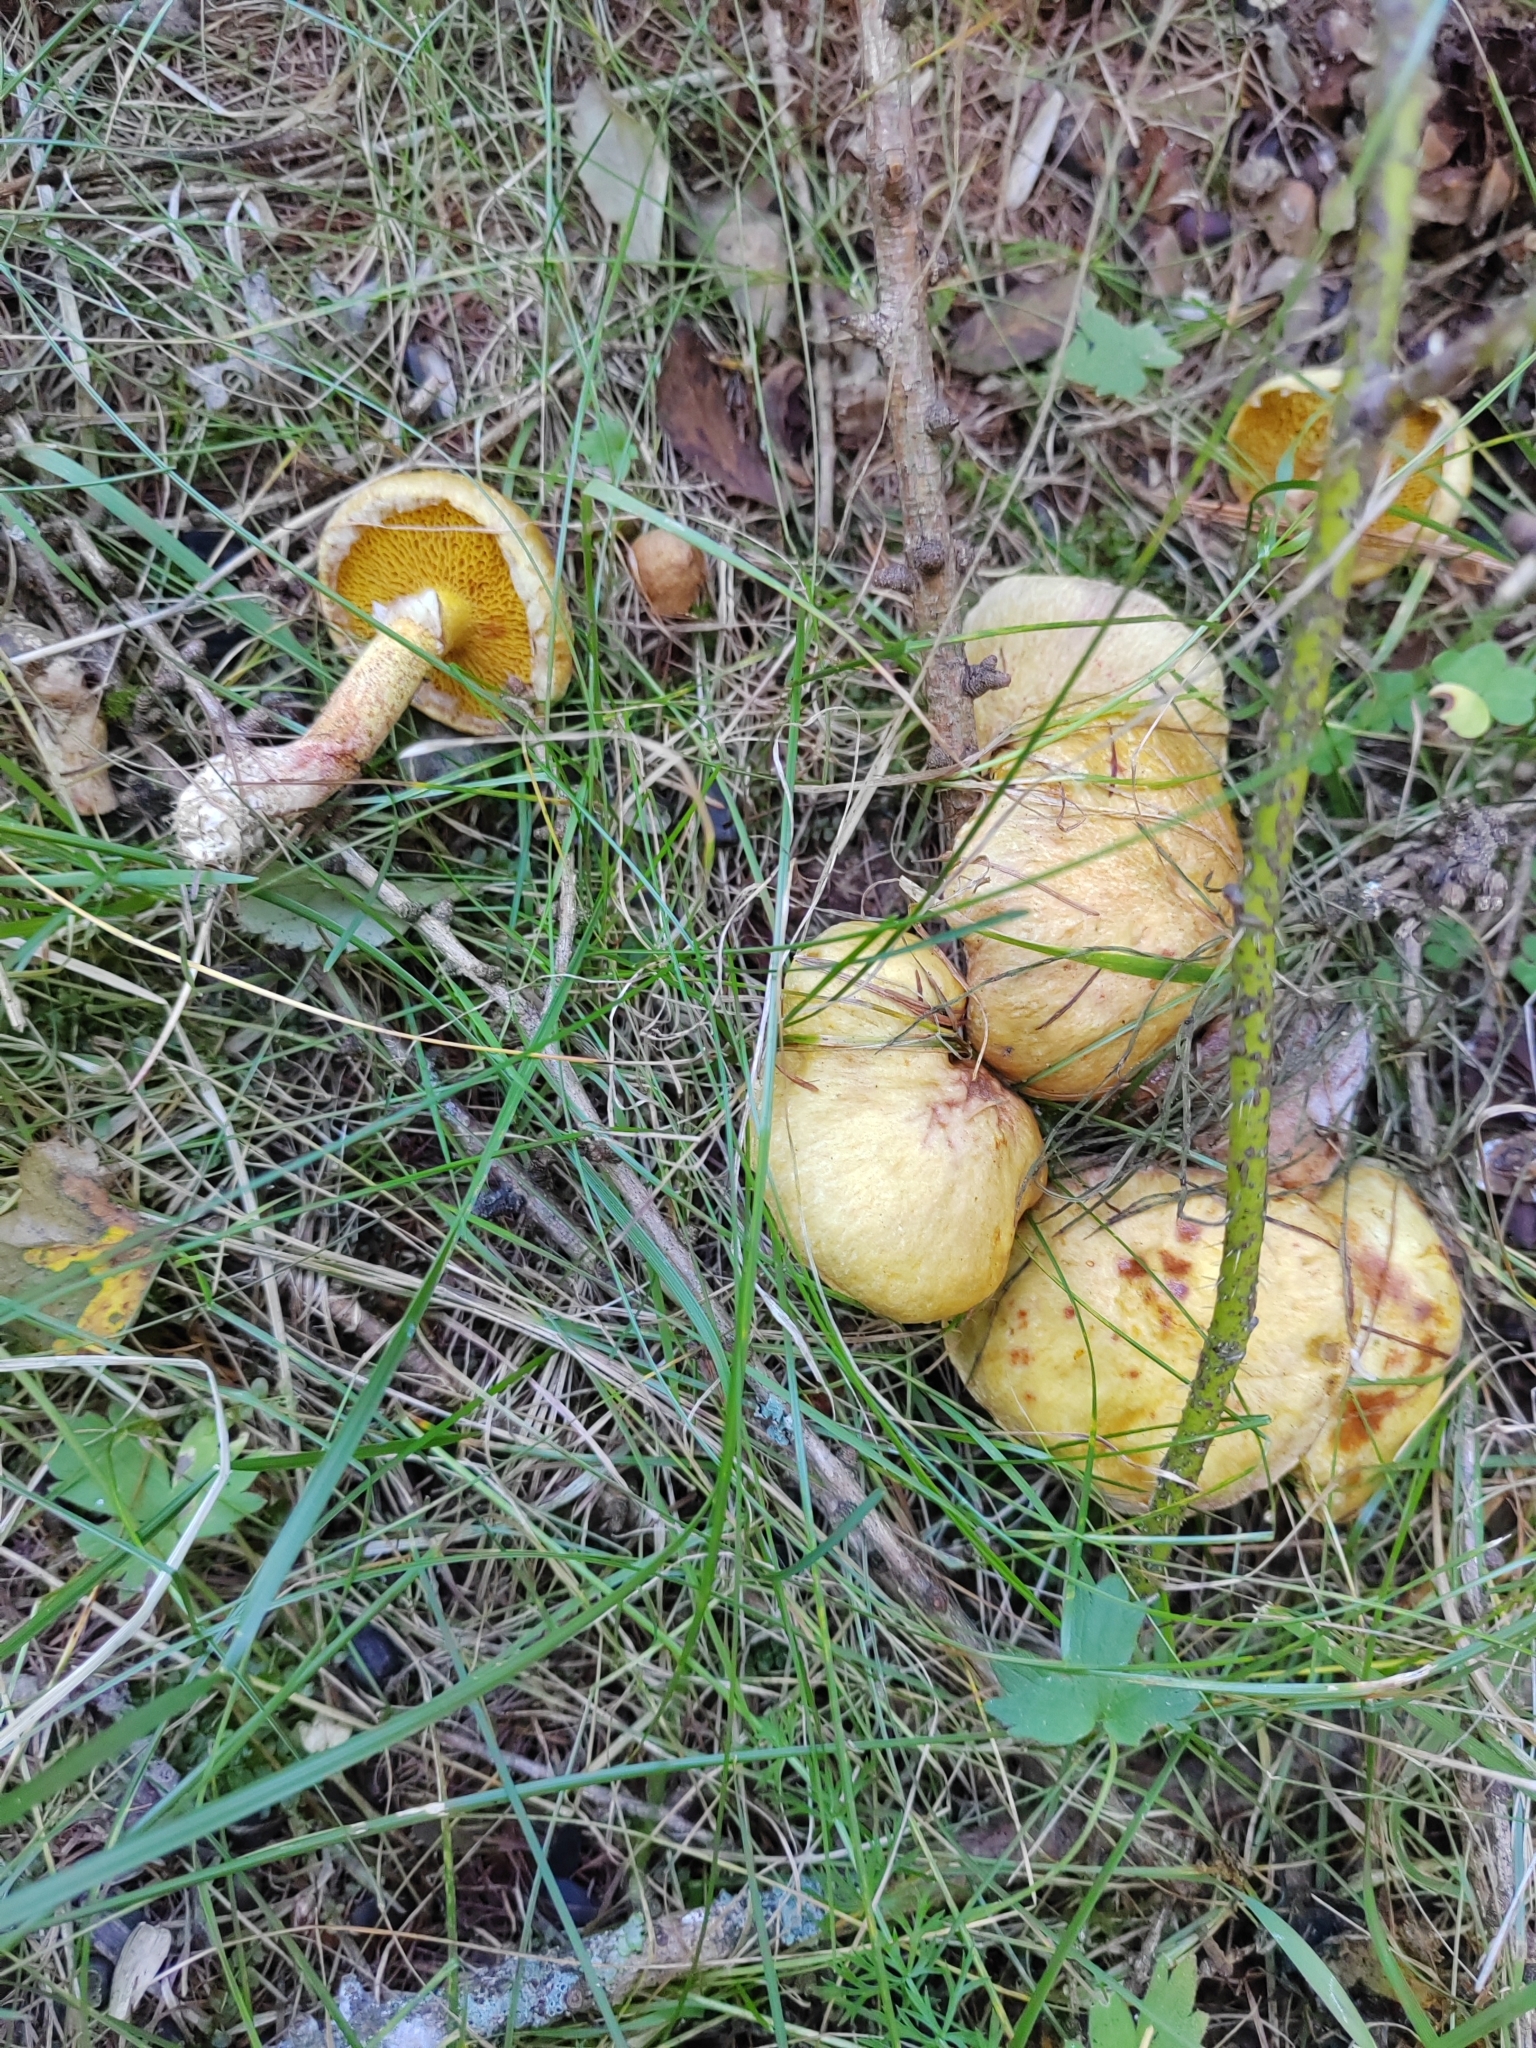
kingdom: Fungi
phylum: Basidiomycota
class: Agaricomycetes
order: Boletales
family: Suillaceae
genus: Suillus
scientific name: Suillus americanus
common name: Chicken fat mushroom
